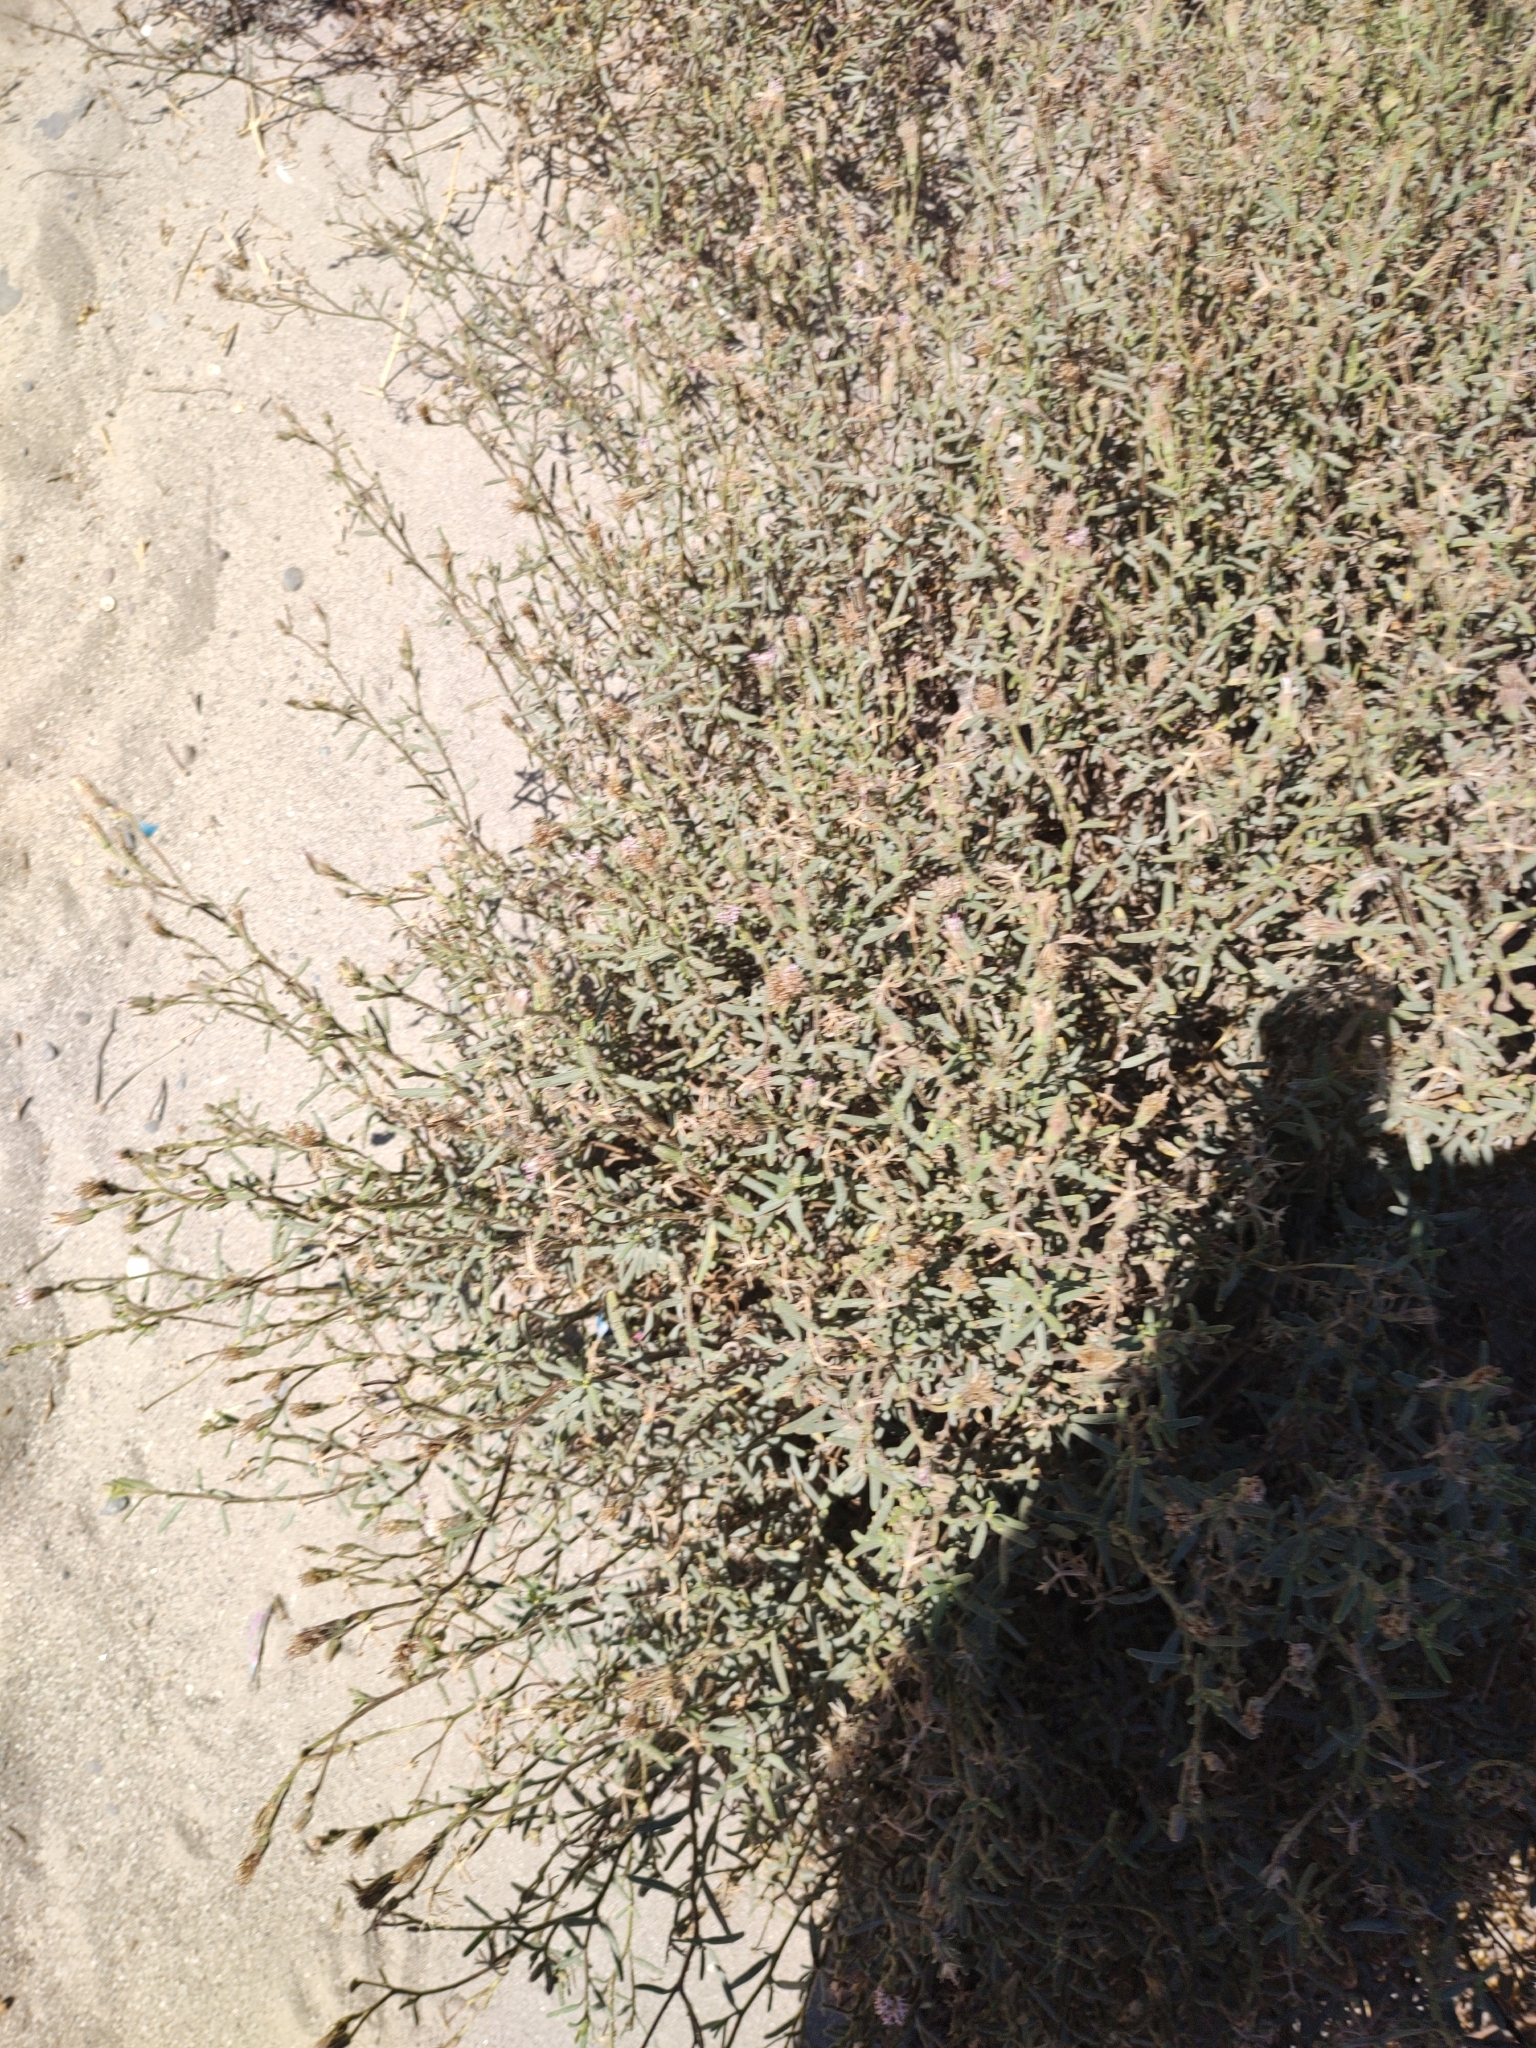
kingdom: Plantae
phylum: Tracheophyta
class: Magnoliopsida
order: Asterales
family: Asteraceae
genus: Palafoxia
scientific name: Palafoxia linearis
